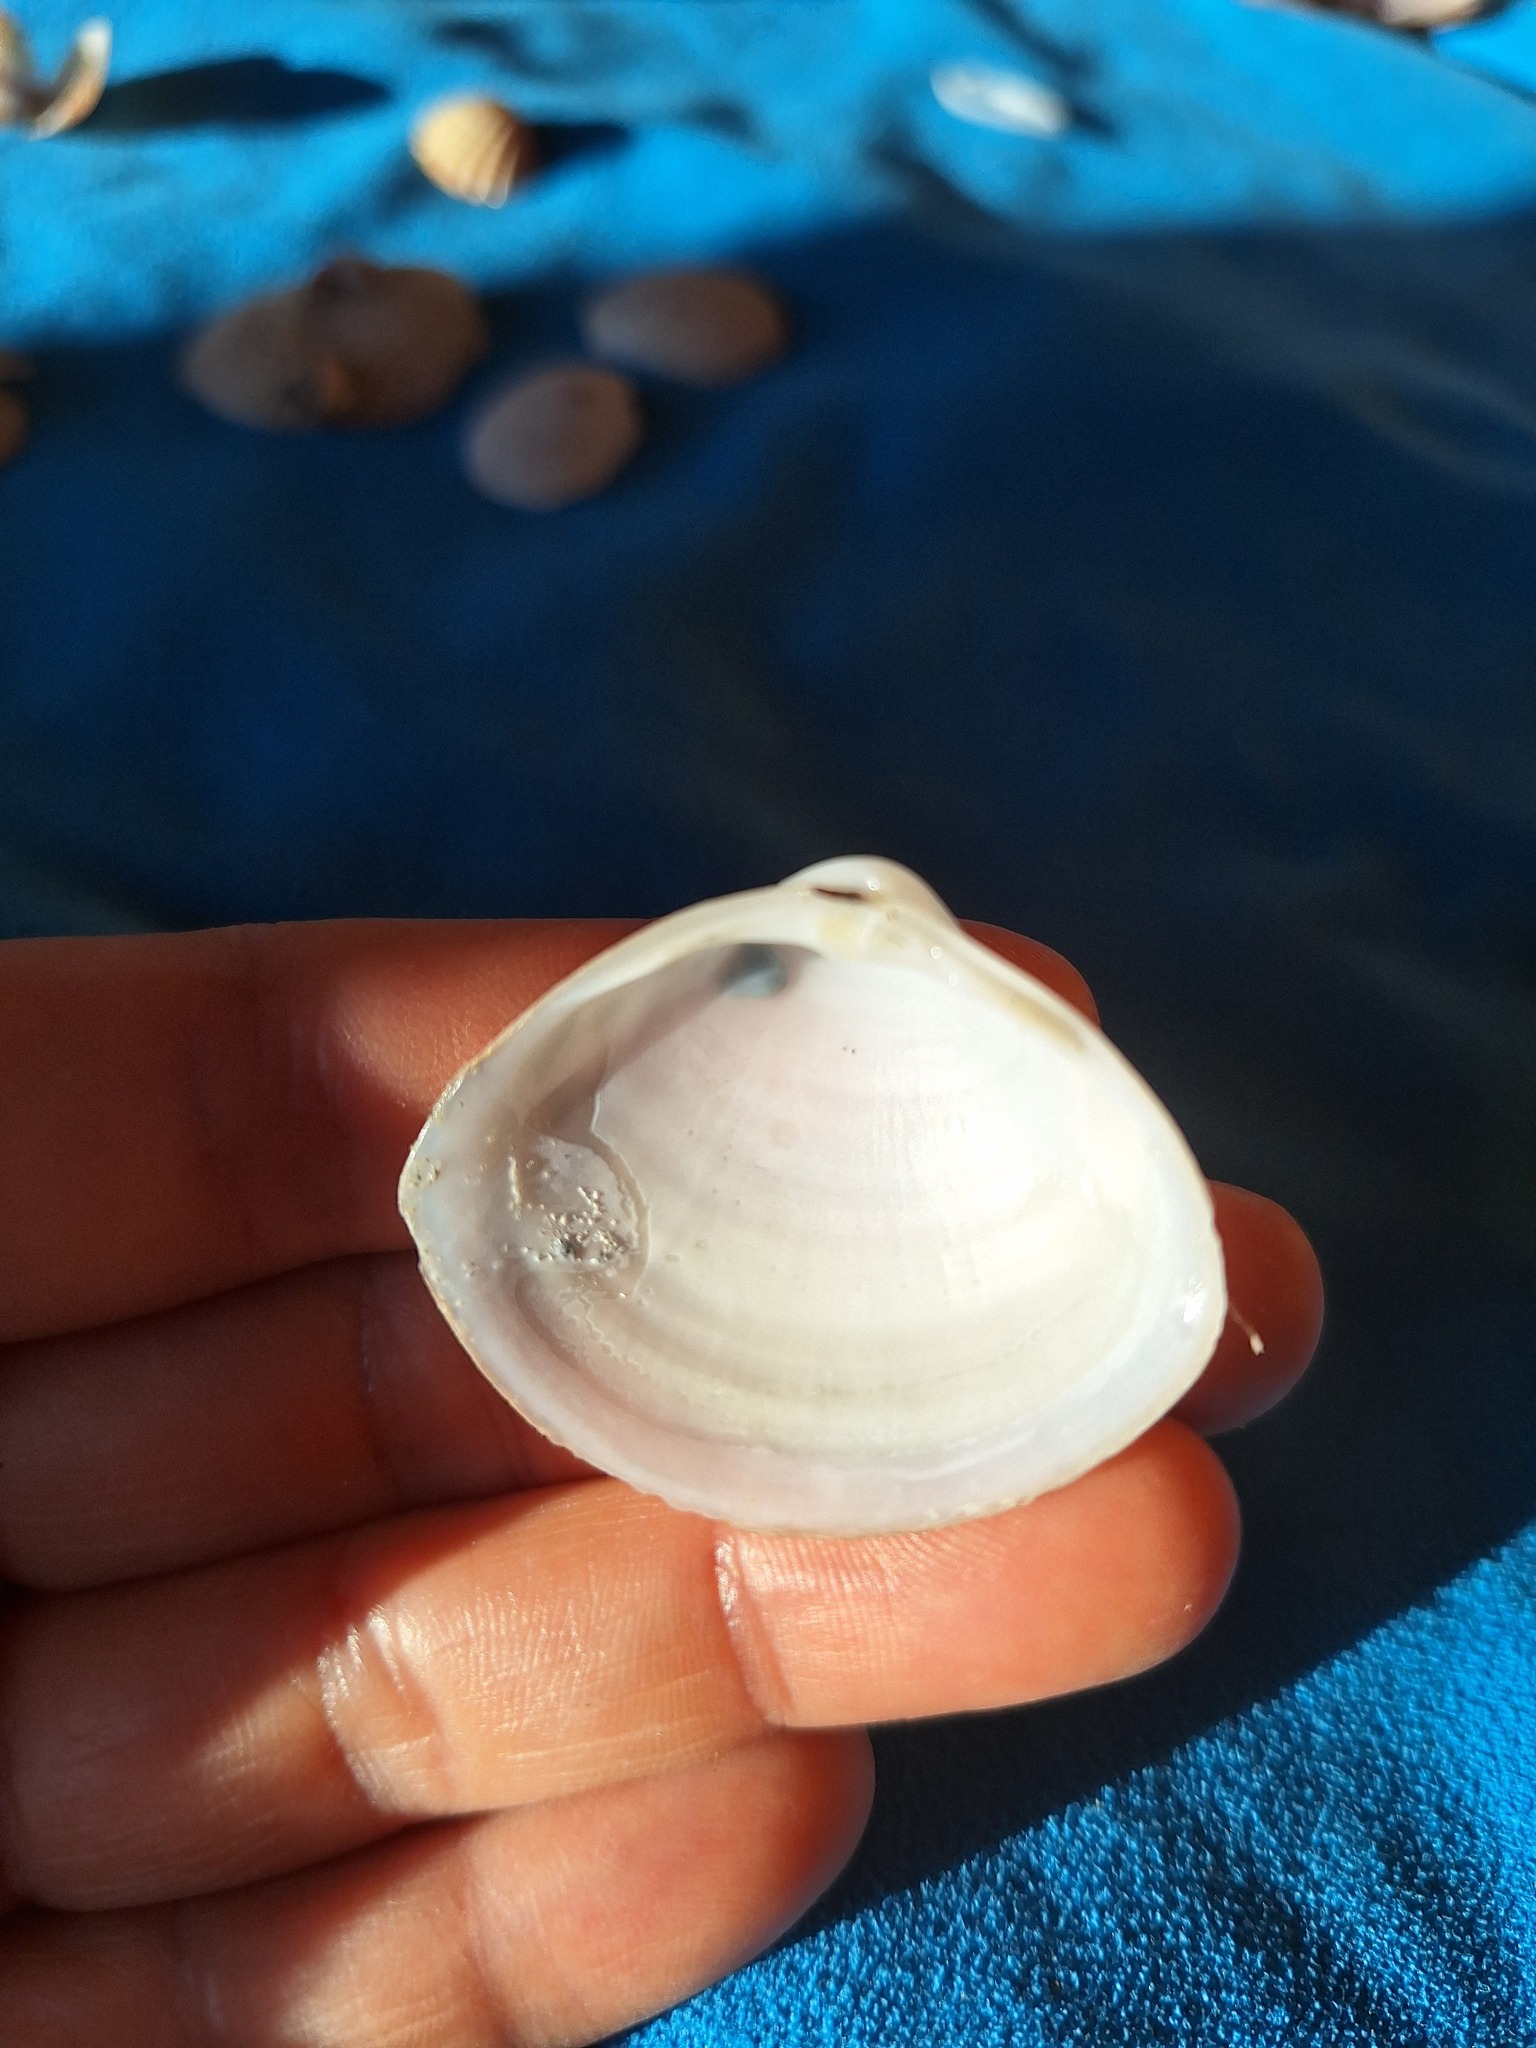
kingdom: Animalia
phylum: Mollusca
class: Bivalvia
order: Venerida
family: Mactridae
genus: Mactra
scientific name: Mactra stultorum
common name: Rayed trough shell
